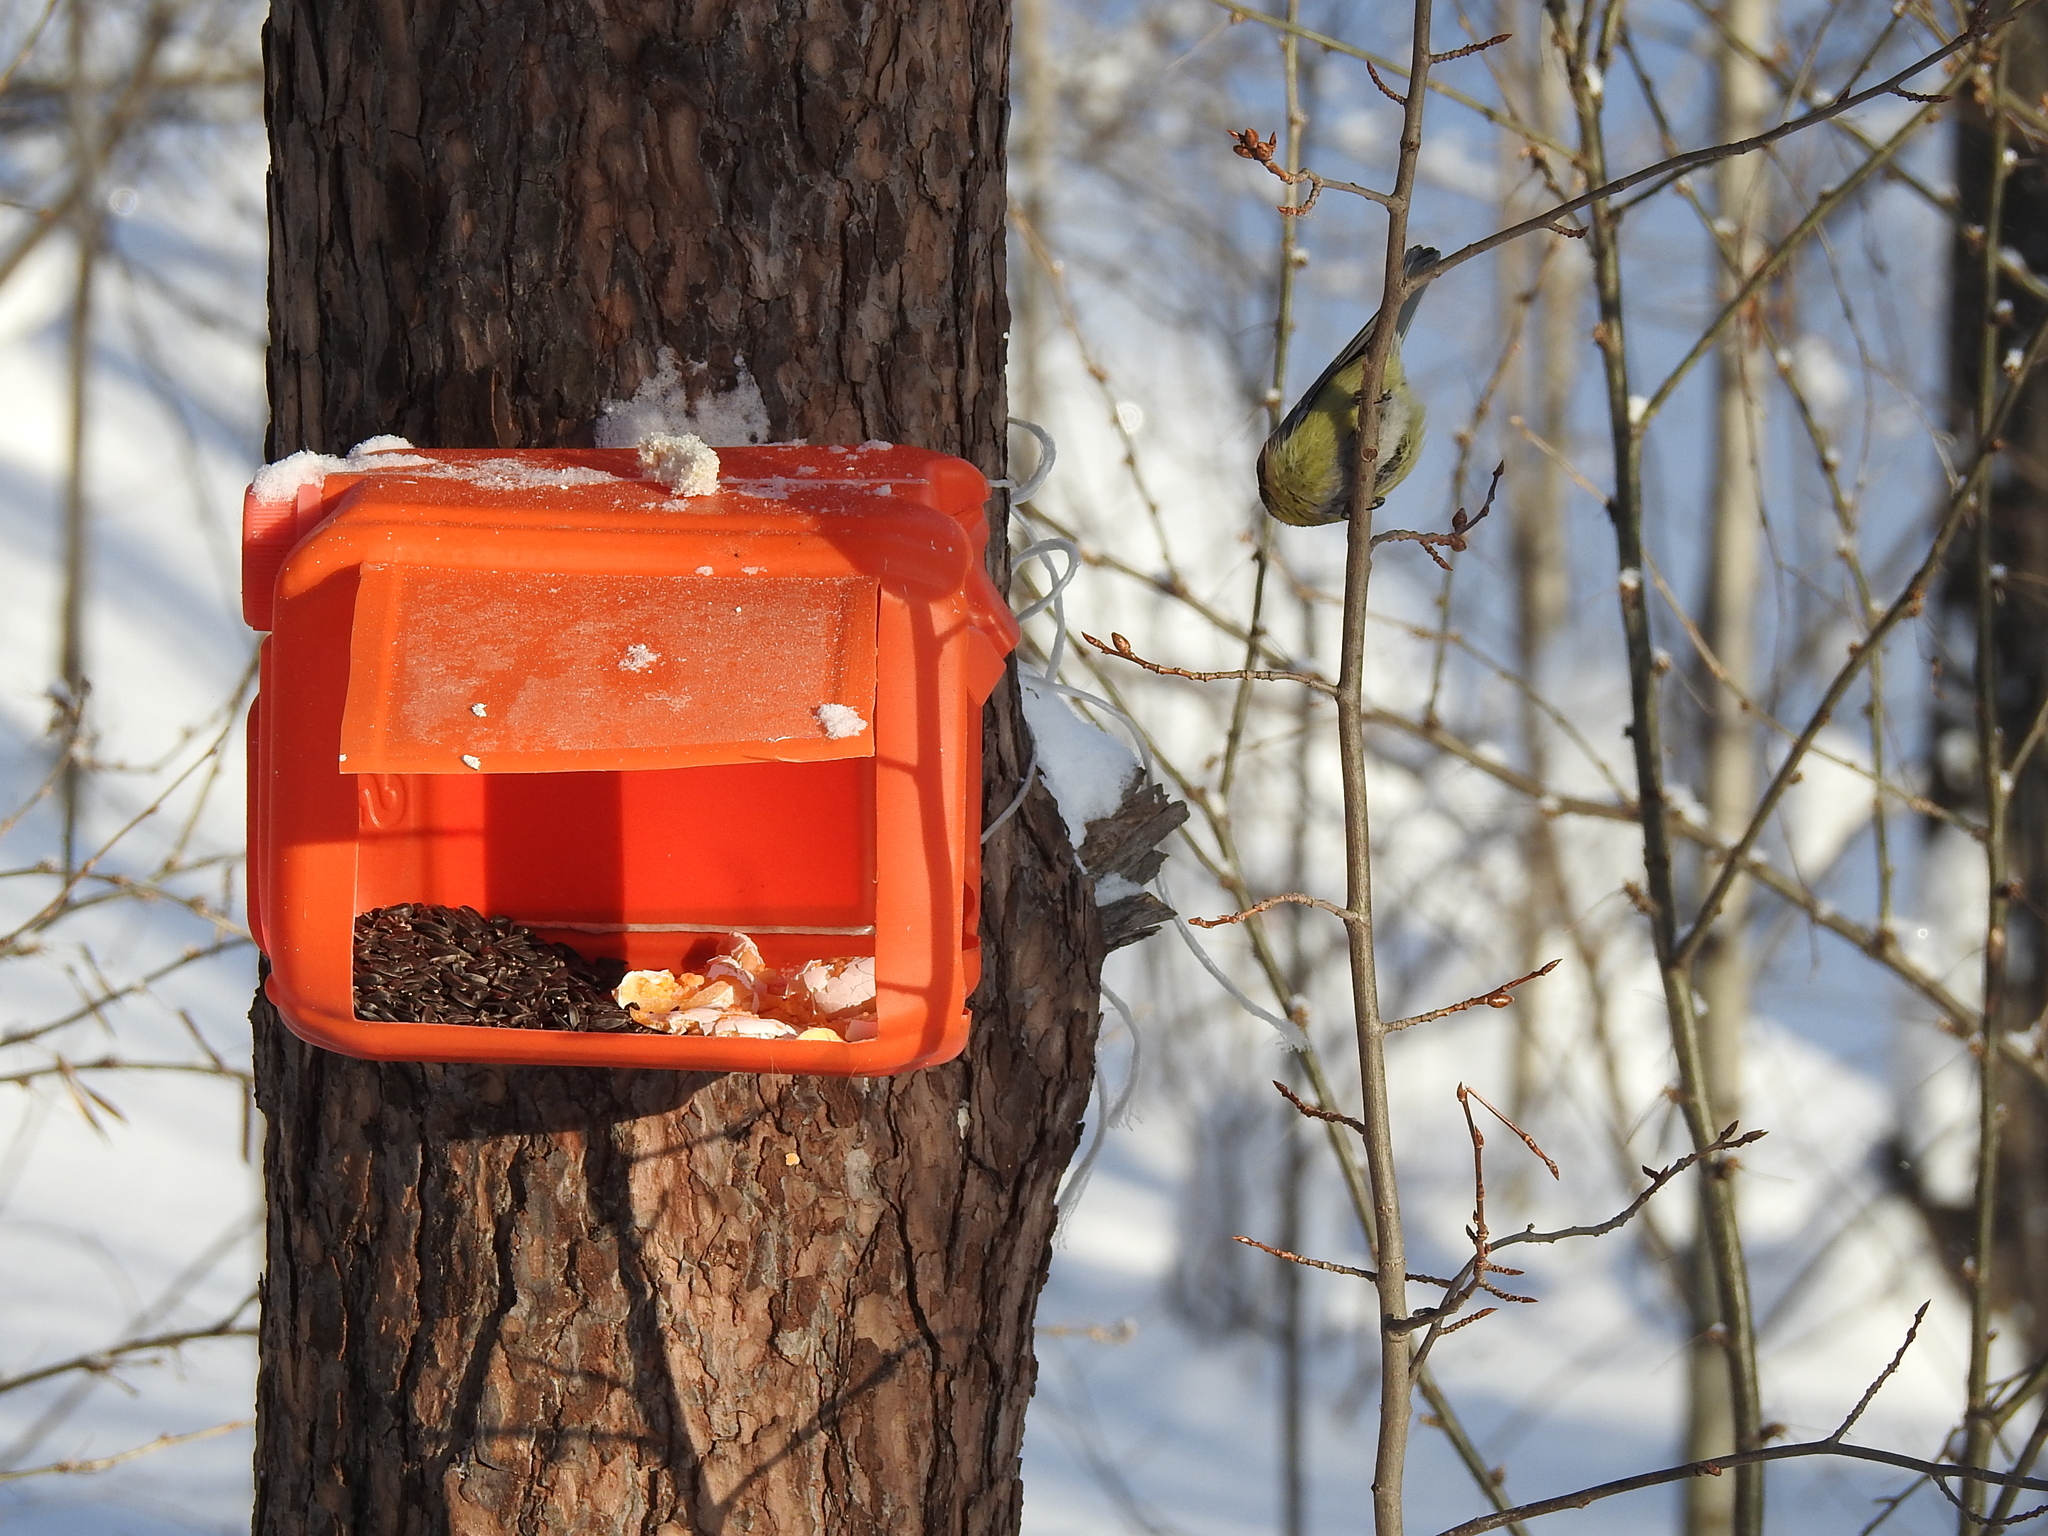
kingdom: Animalia
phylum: Chordata
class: Aves
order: Passeriformes
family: Paridae
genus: Cyanistes
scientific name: Cyanistes caeruleus
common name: Eurasian blue tit
